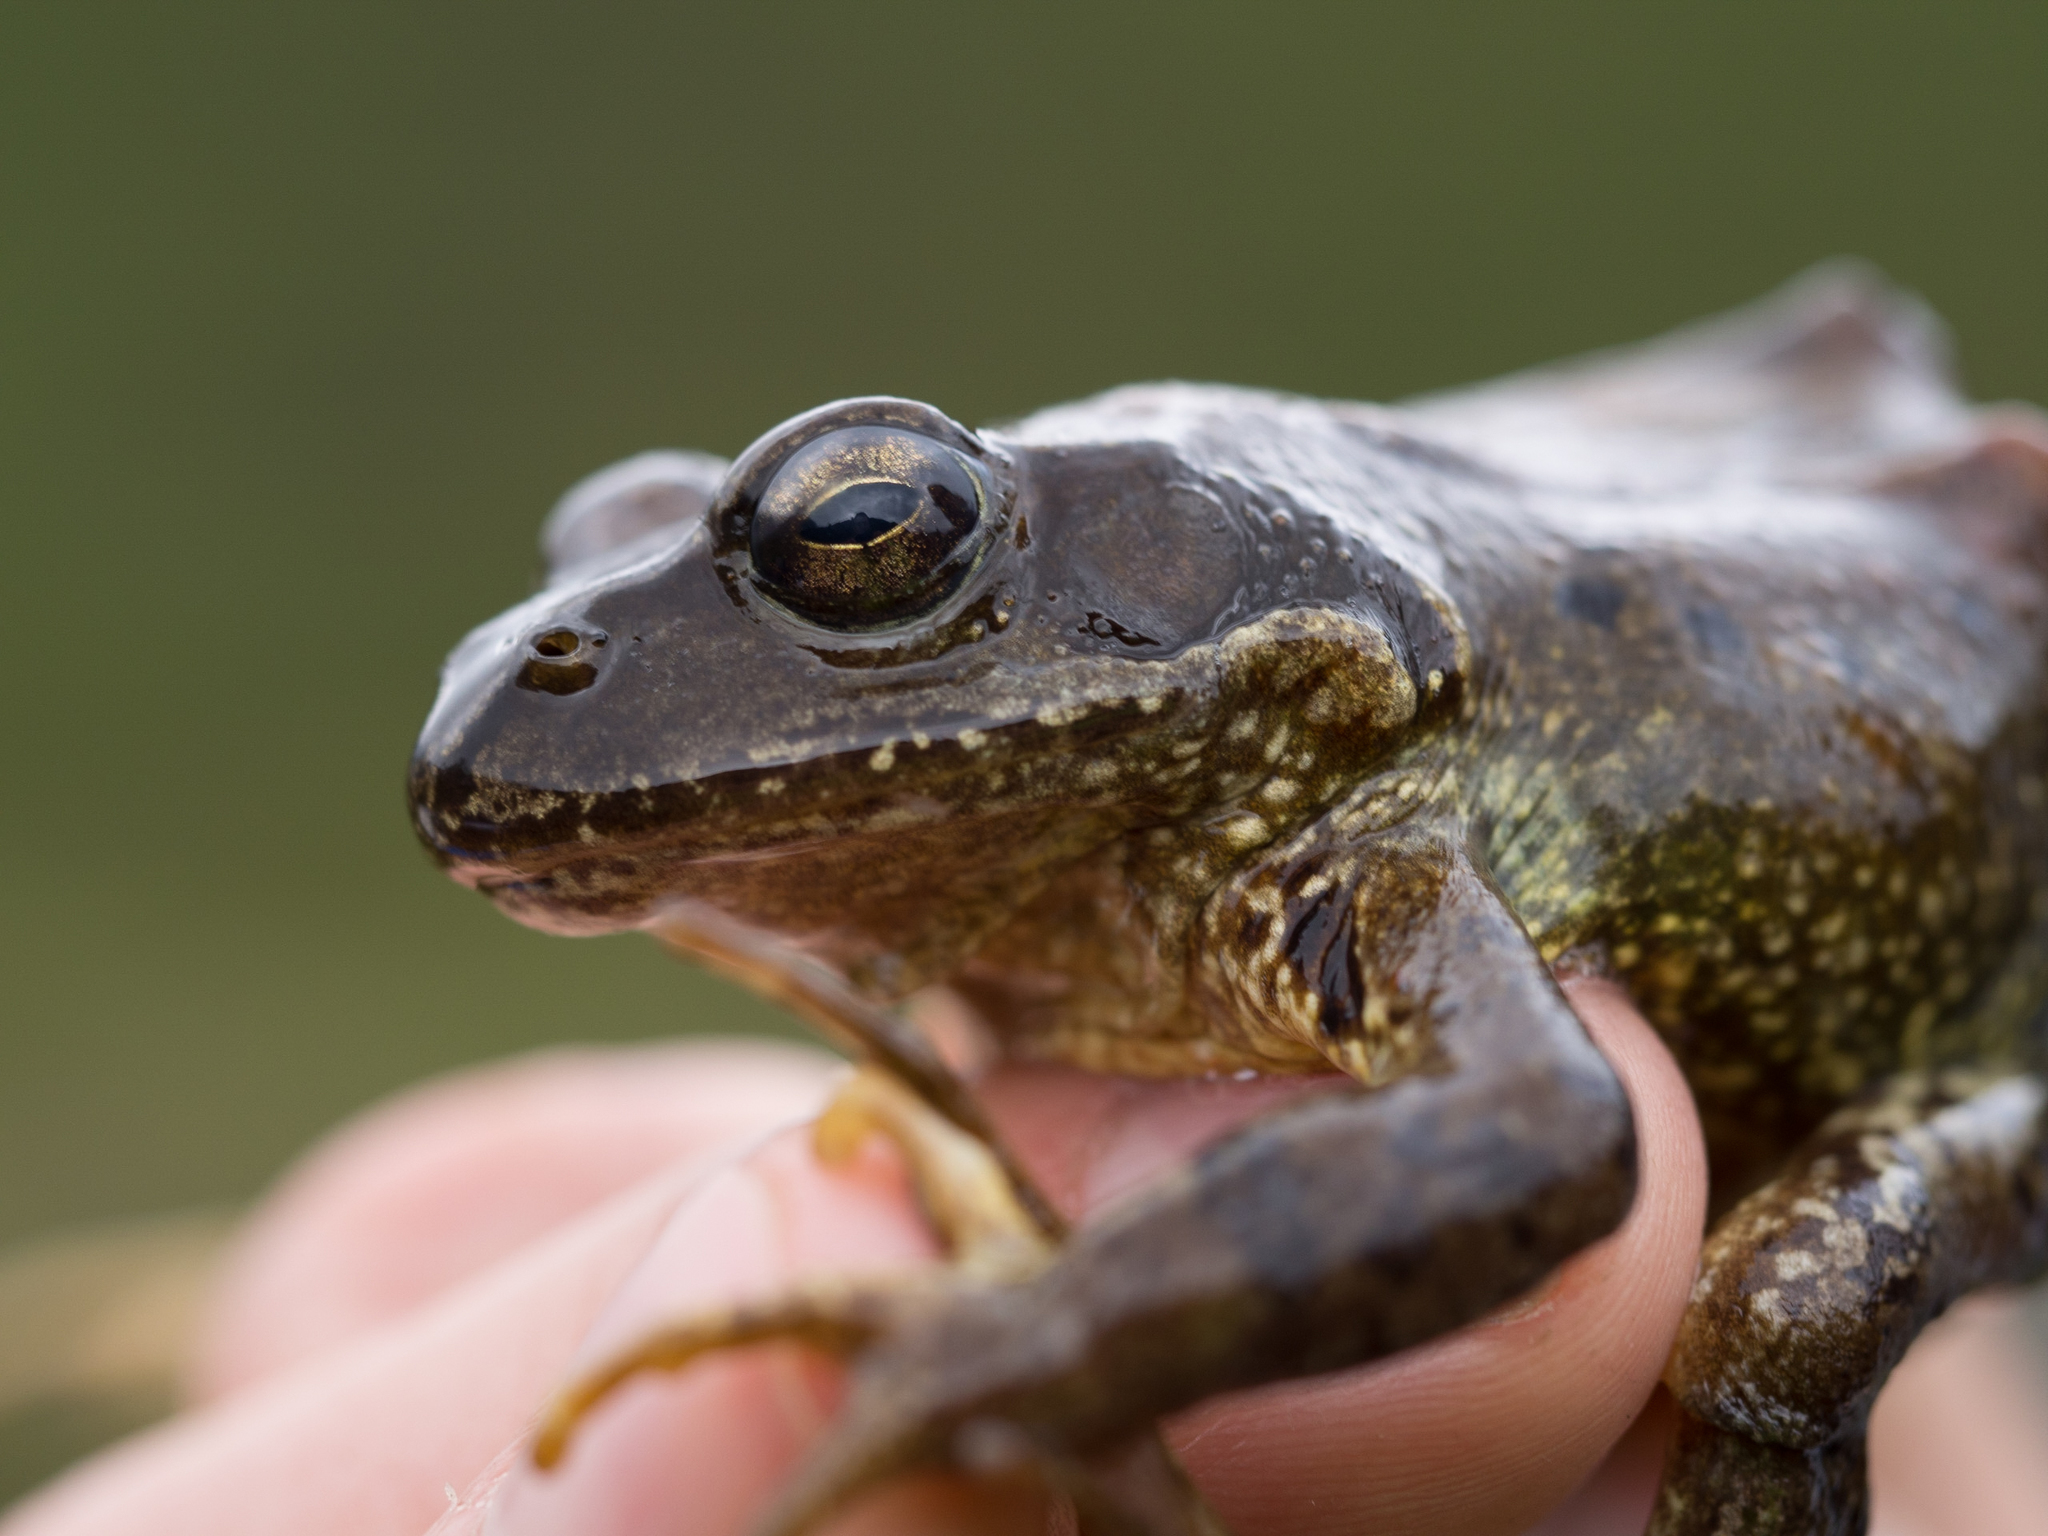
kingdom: Animalia
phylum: Chordata
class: Amphibia
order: Anura
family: Ranidae
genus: Rana
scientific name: Rana temporaria
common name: Common frog
